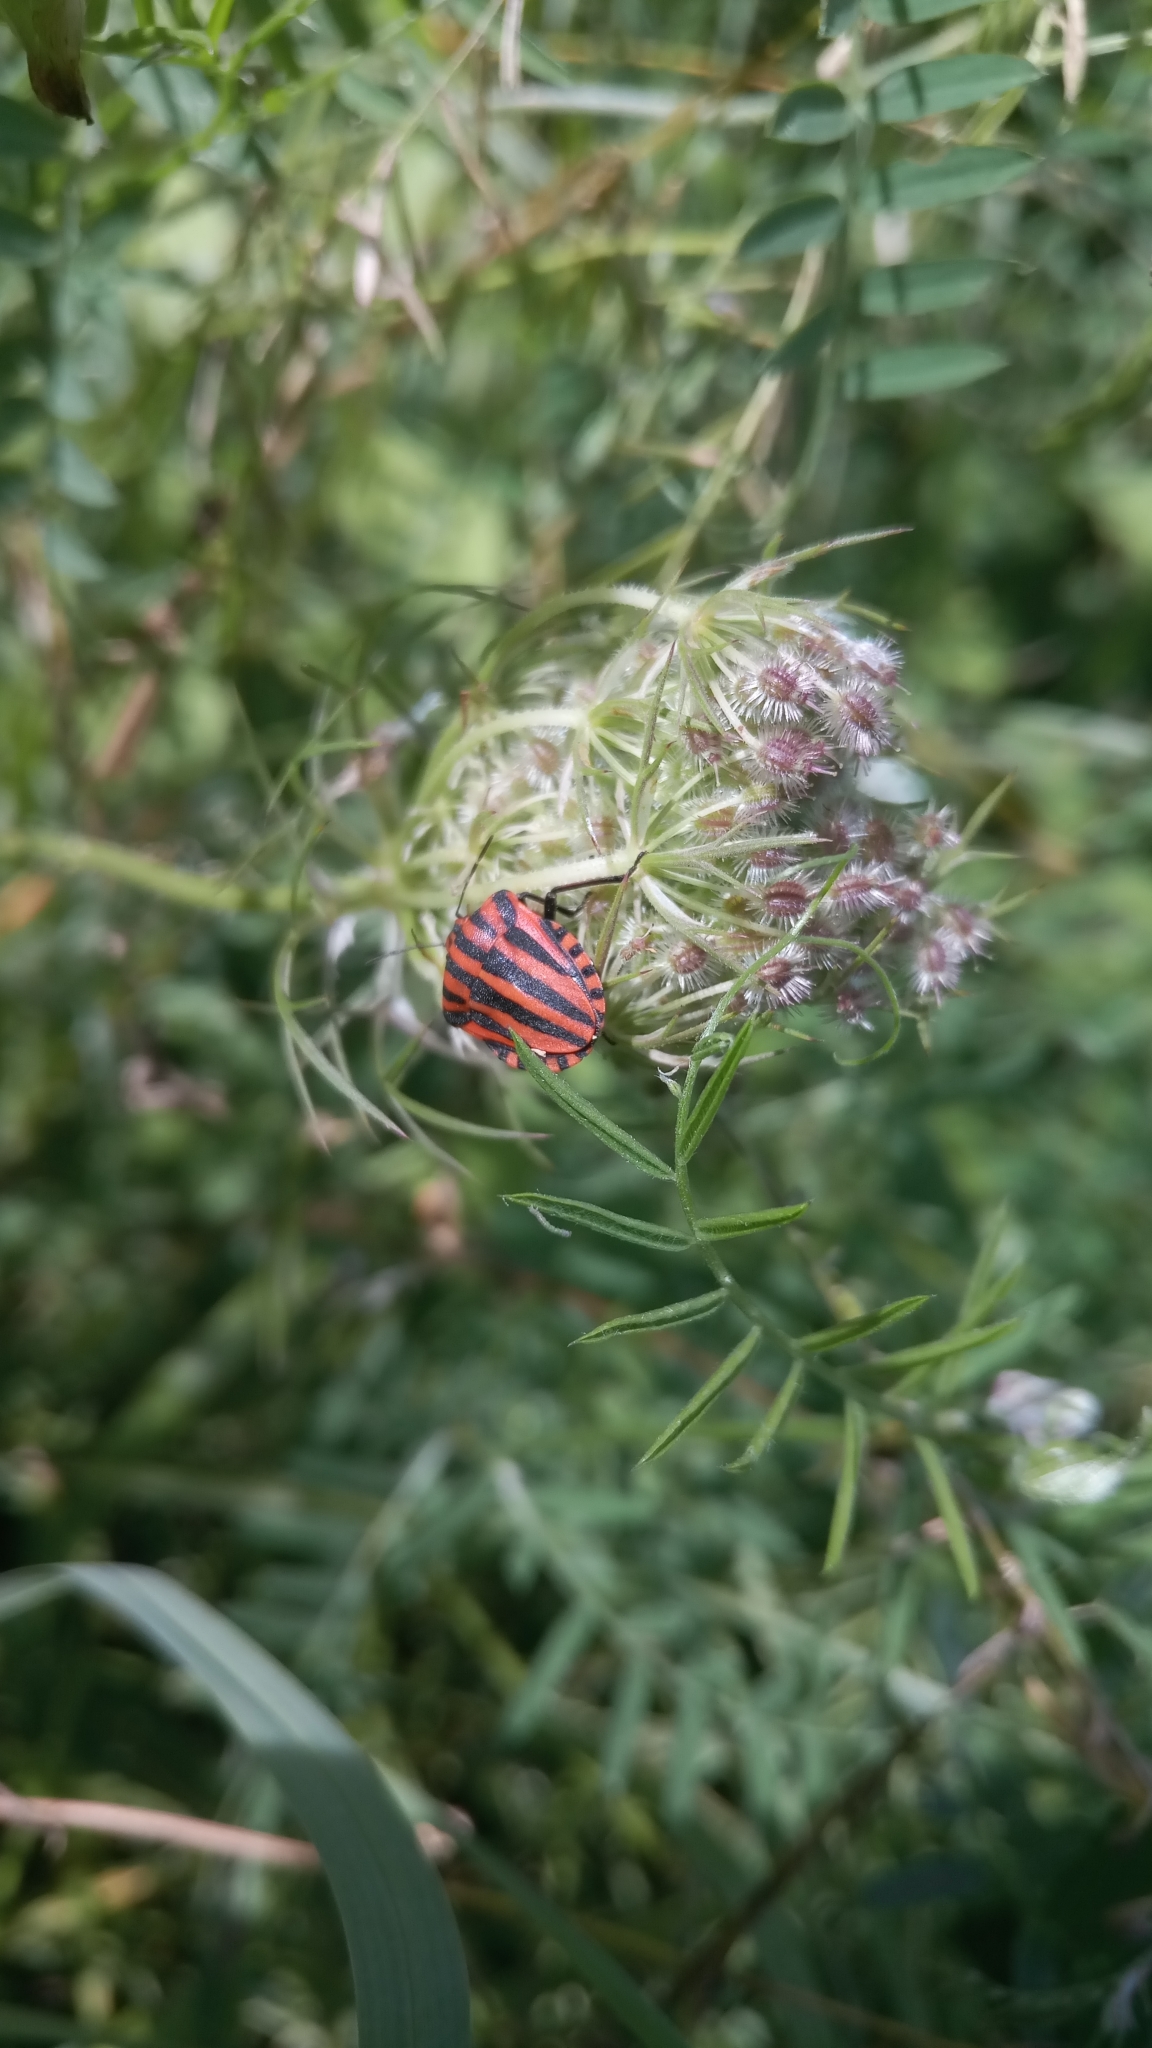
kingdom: Animalia
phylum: Arthropoda
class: Insecta
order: Hemiptera
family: Pentatomidae
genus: Graphosoma
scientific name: Graphosoma italicum
